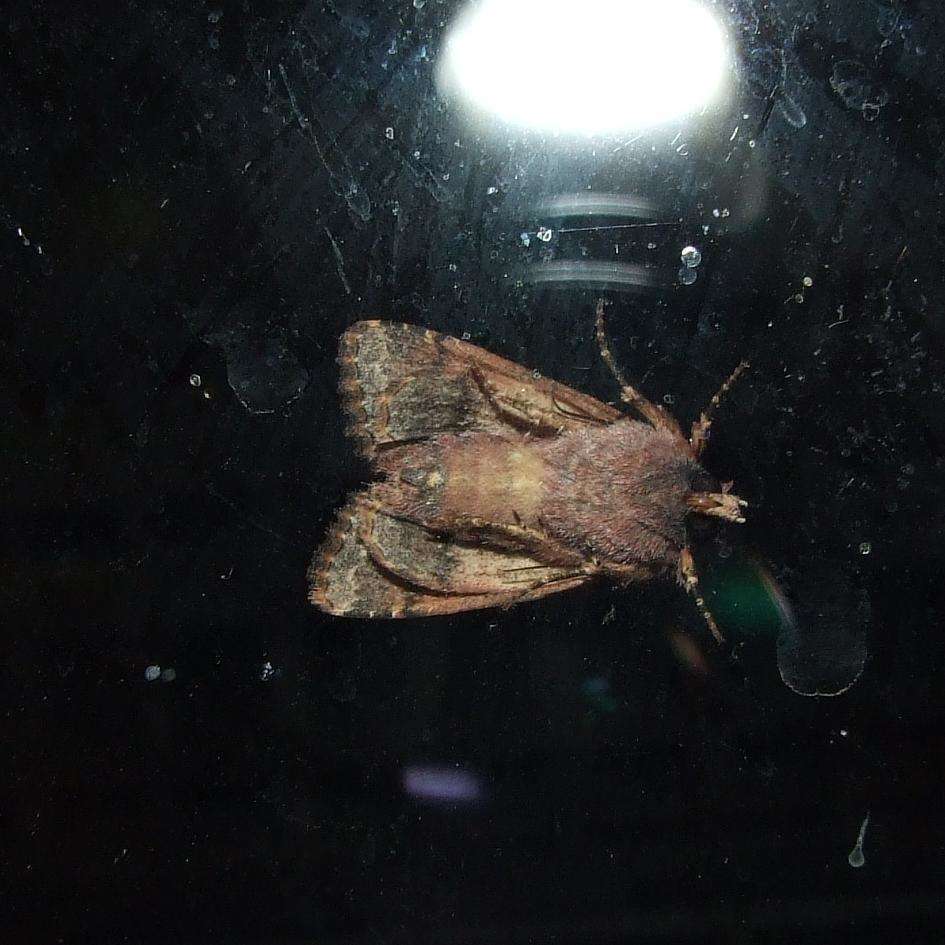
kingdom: Animalia
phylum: Arthropoda
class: Insecta
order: Lepidoptera
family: Noctuidae
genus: Neumichtis
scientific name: Neumichtis saliaris
